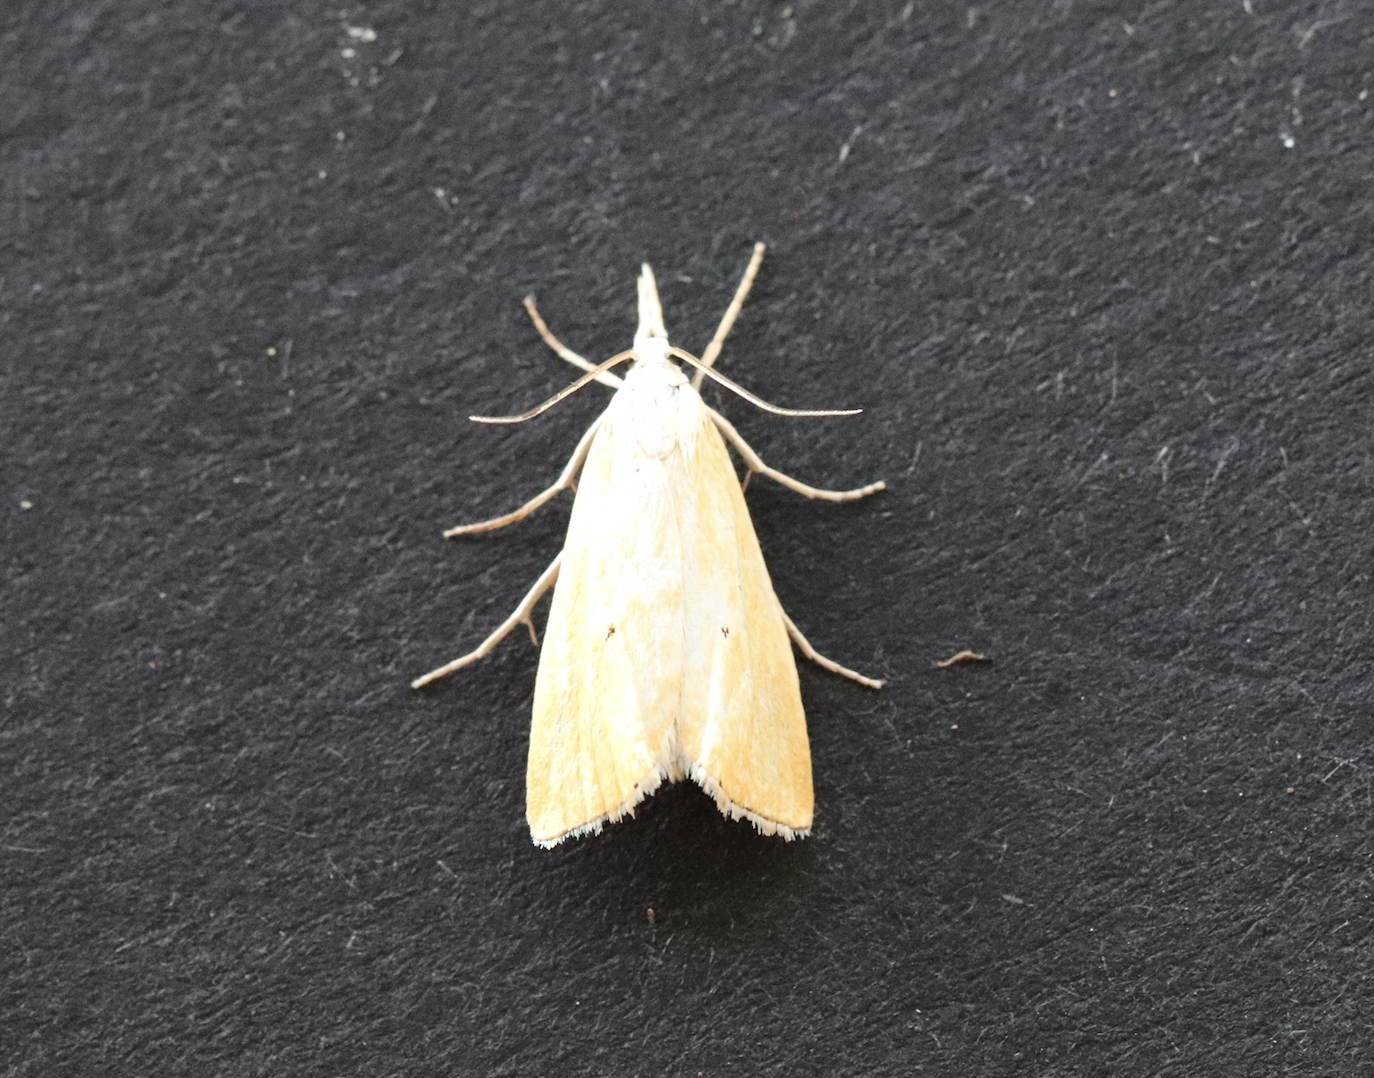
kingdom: Animalia
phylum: Arthropoda
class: Insecta
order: Lepidoptera
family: Crambidae
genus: Xanthocrambus
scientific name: Xanthocrambus saxonellus
